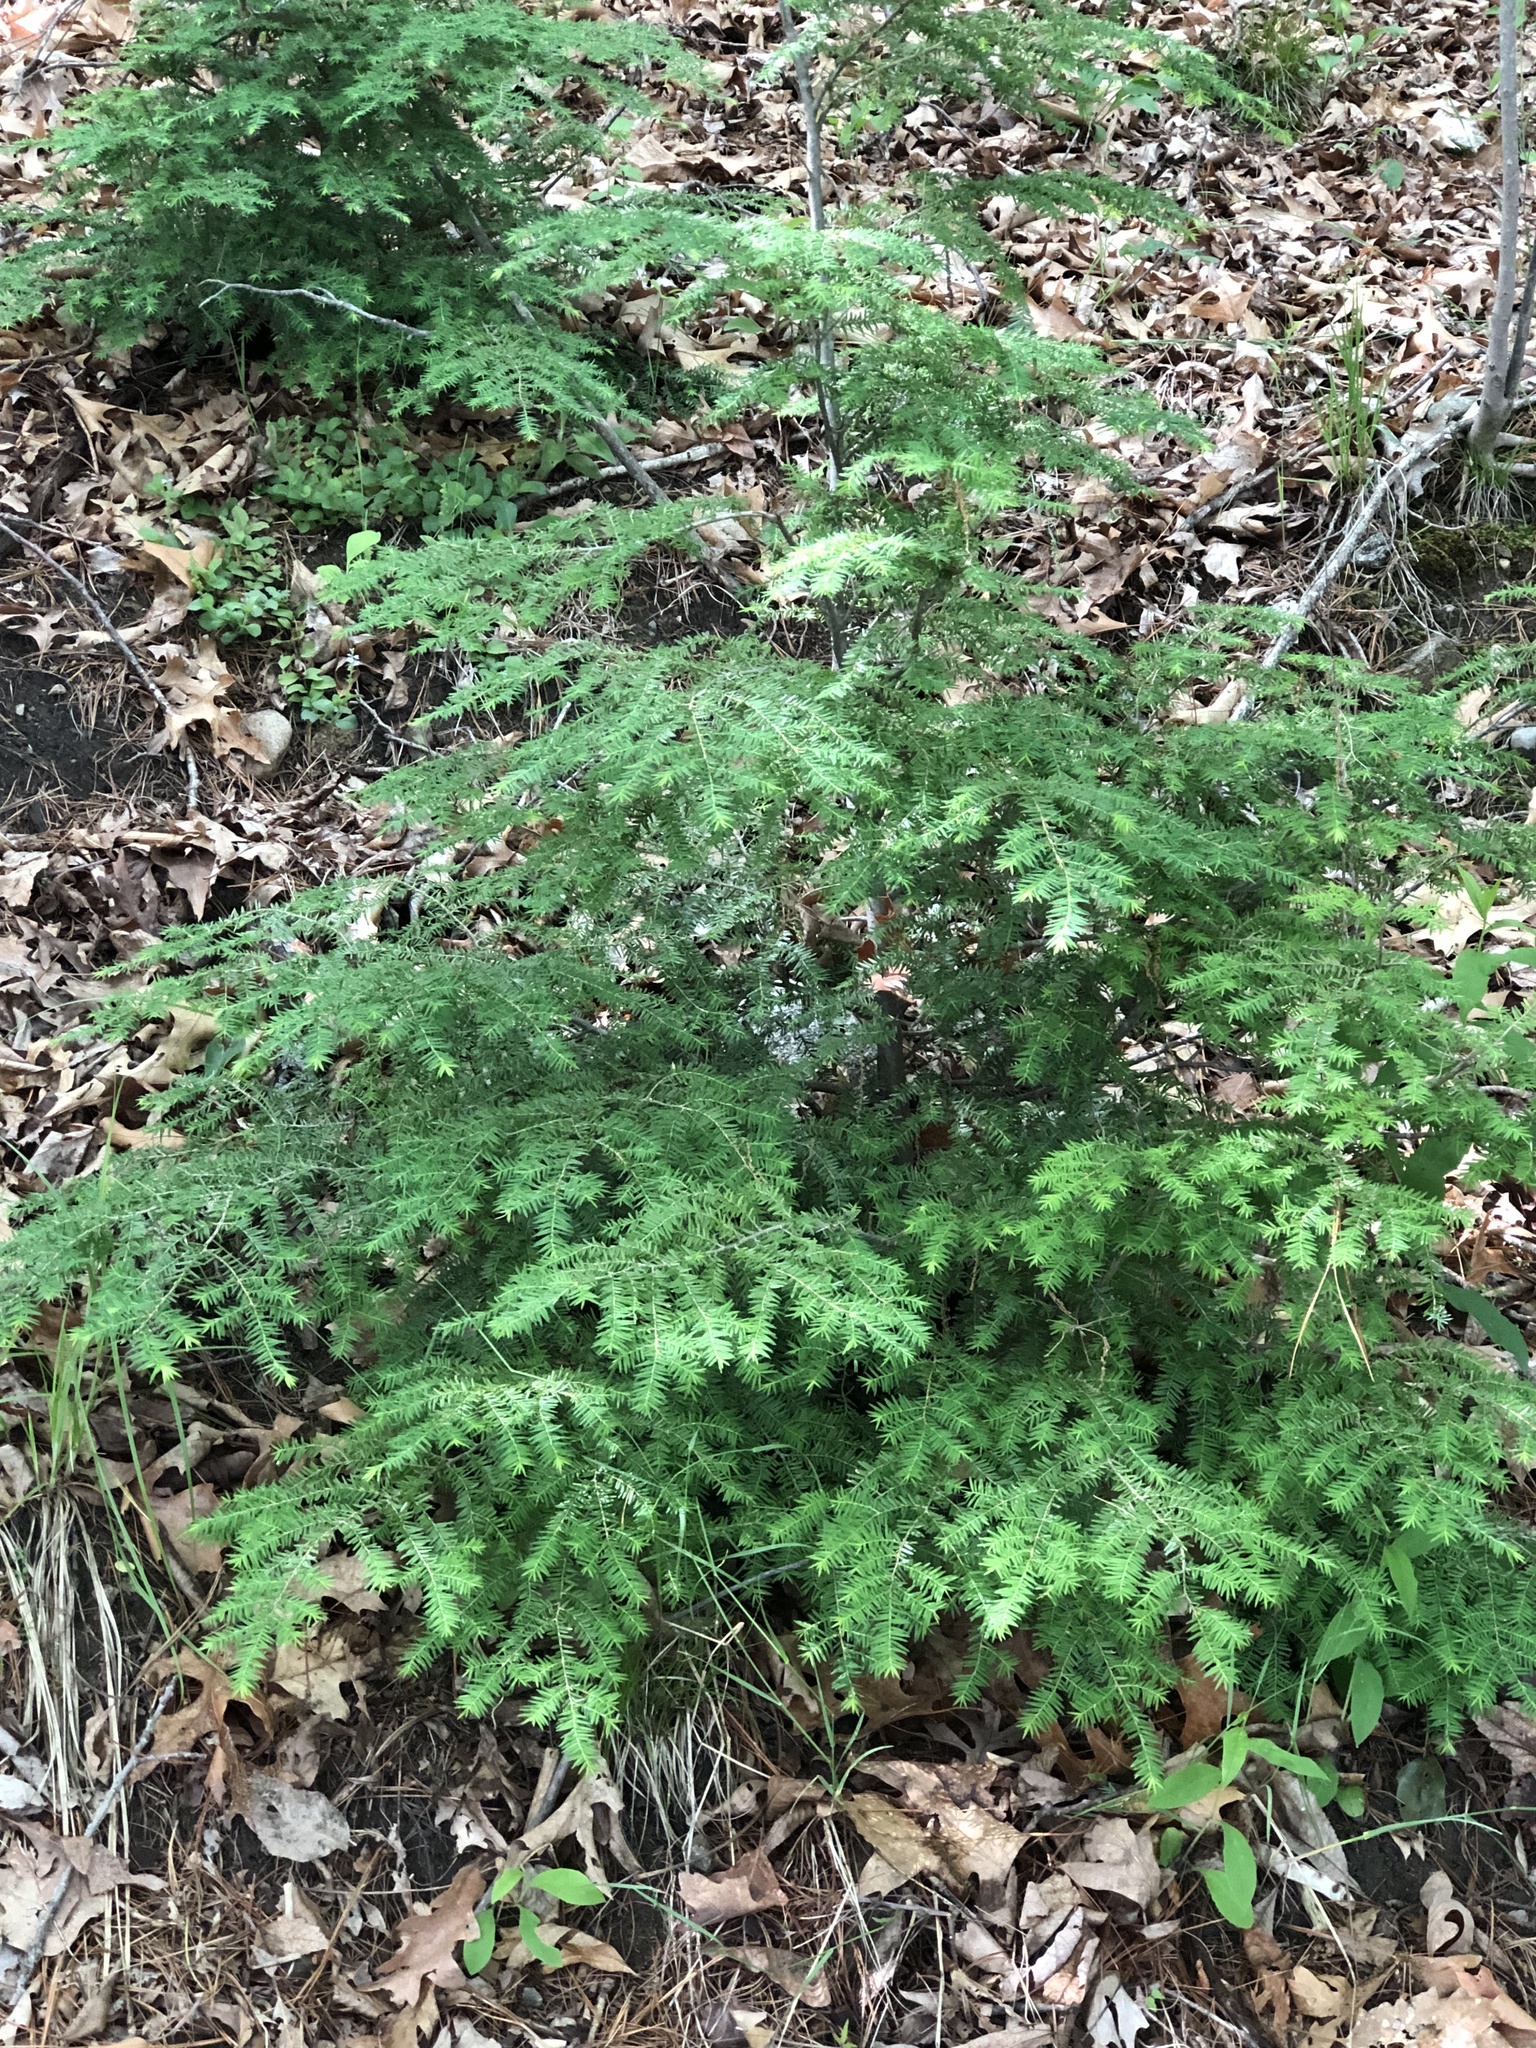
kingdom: Plantae
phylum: Tracheophyta
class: Pinopsida
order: Pinales
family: Pinaceae
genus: Tsuga
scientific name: Tsuga canadensis
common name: Eastern hemlock
